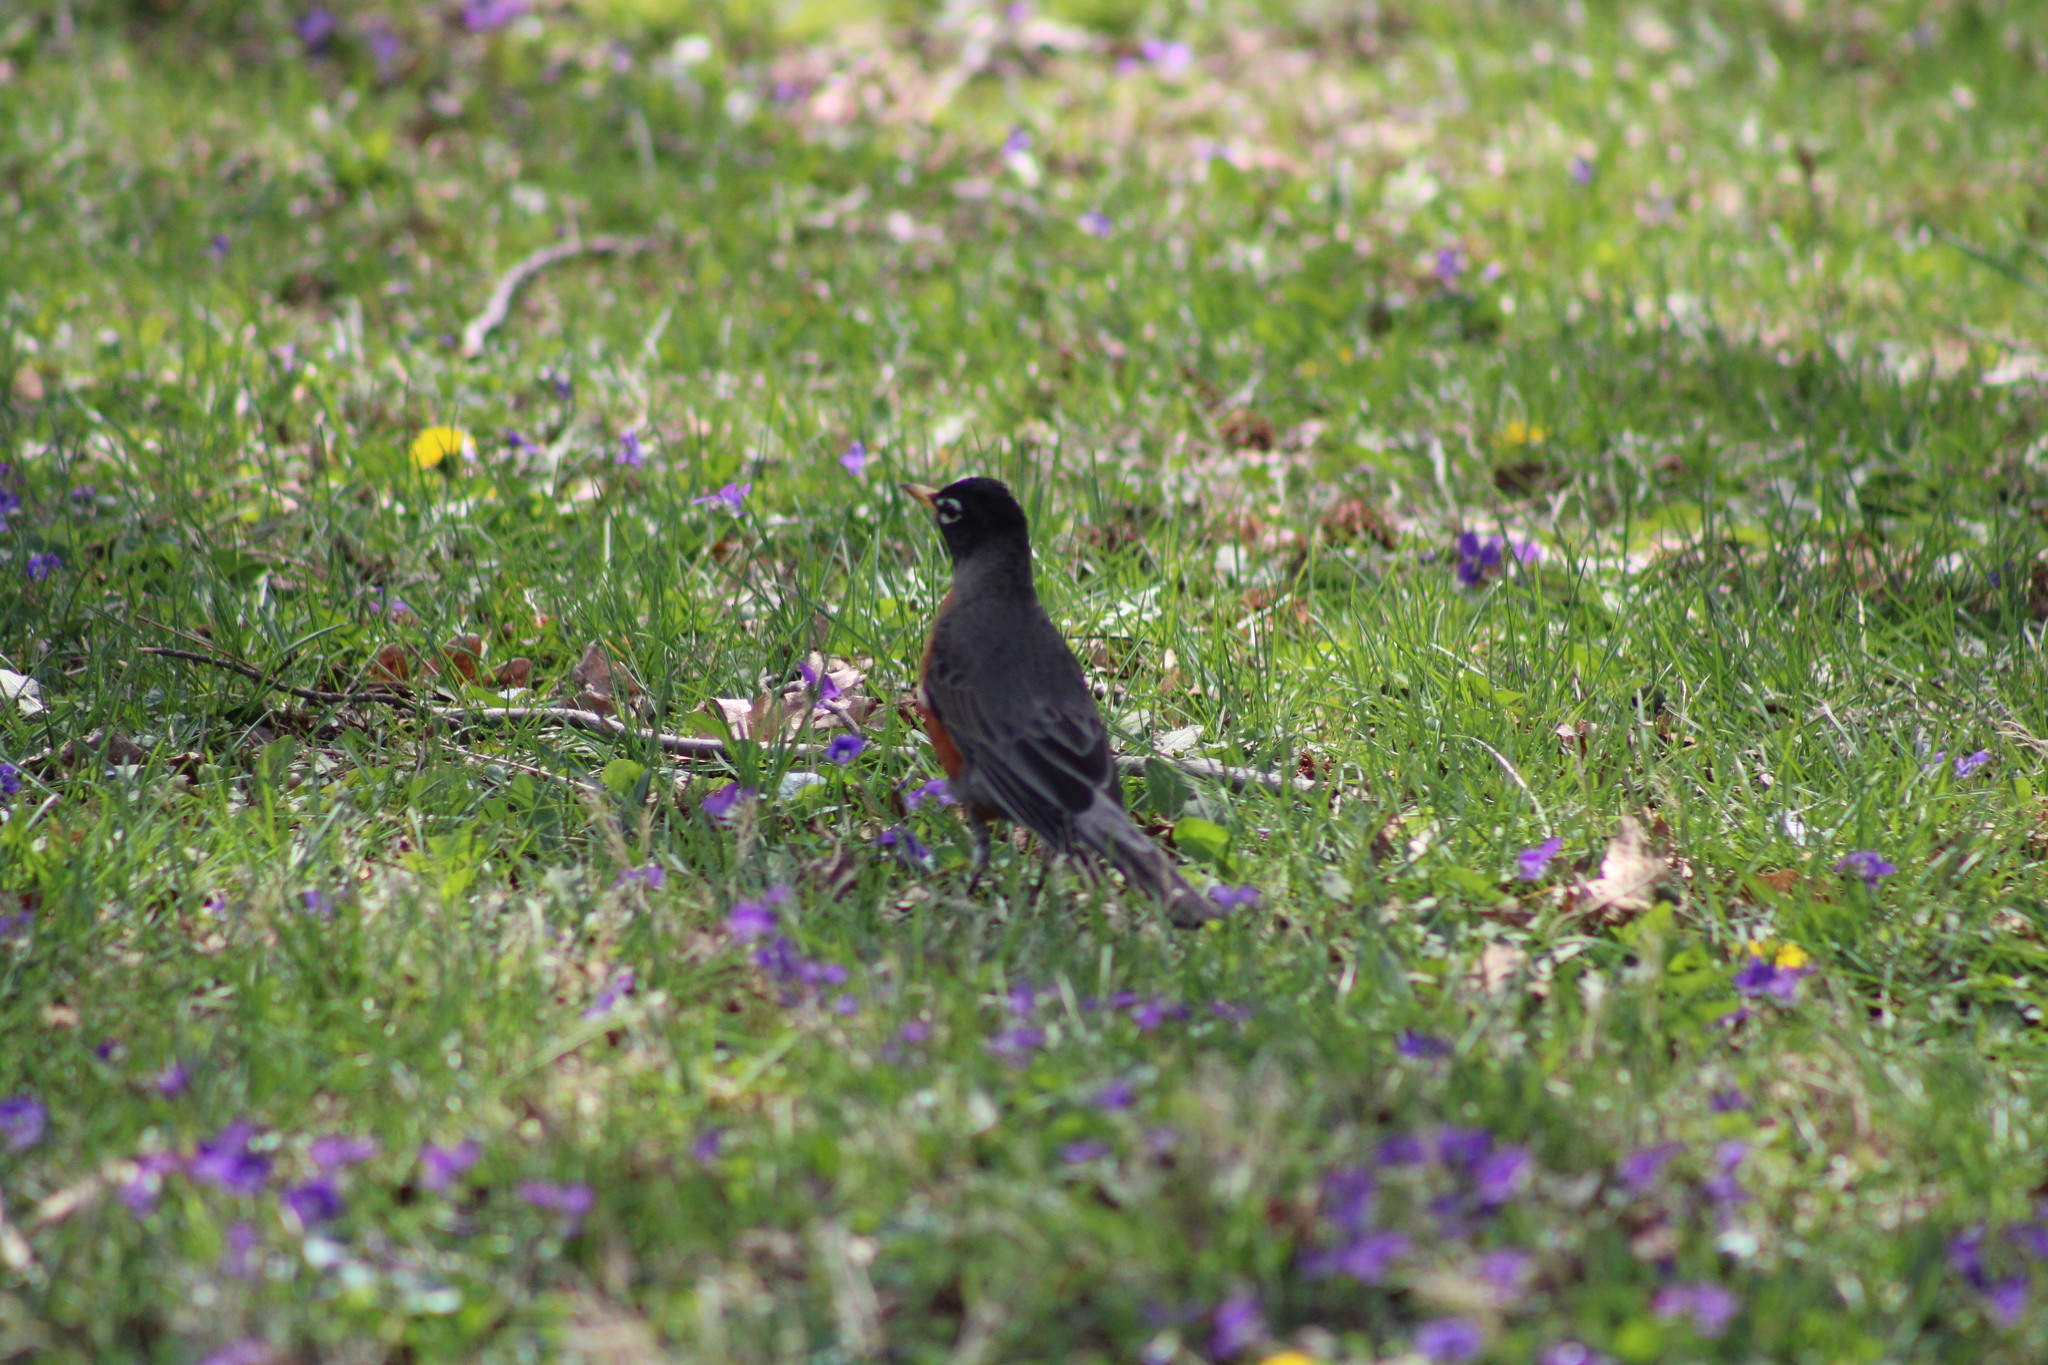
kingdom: Animalia
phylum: Chordata
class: Aves
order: Passeriformes
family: Turdidae
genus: Turdus
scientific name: Turdus migratorius
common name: American robin
